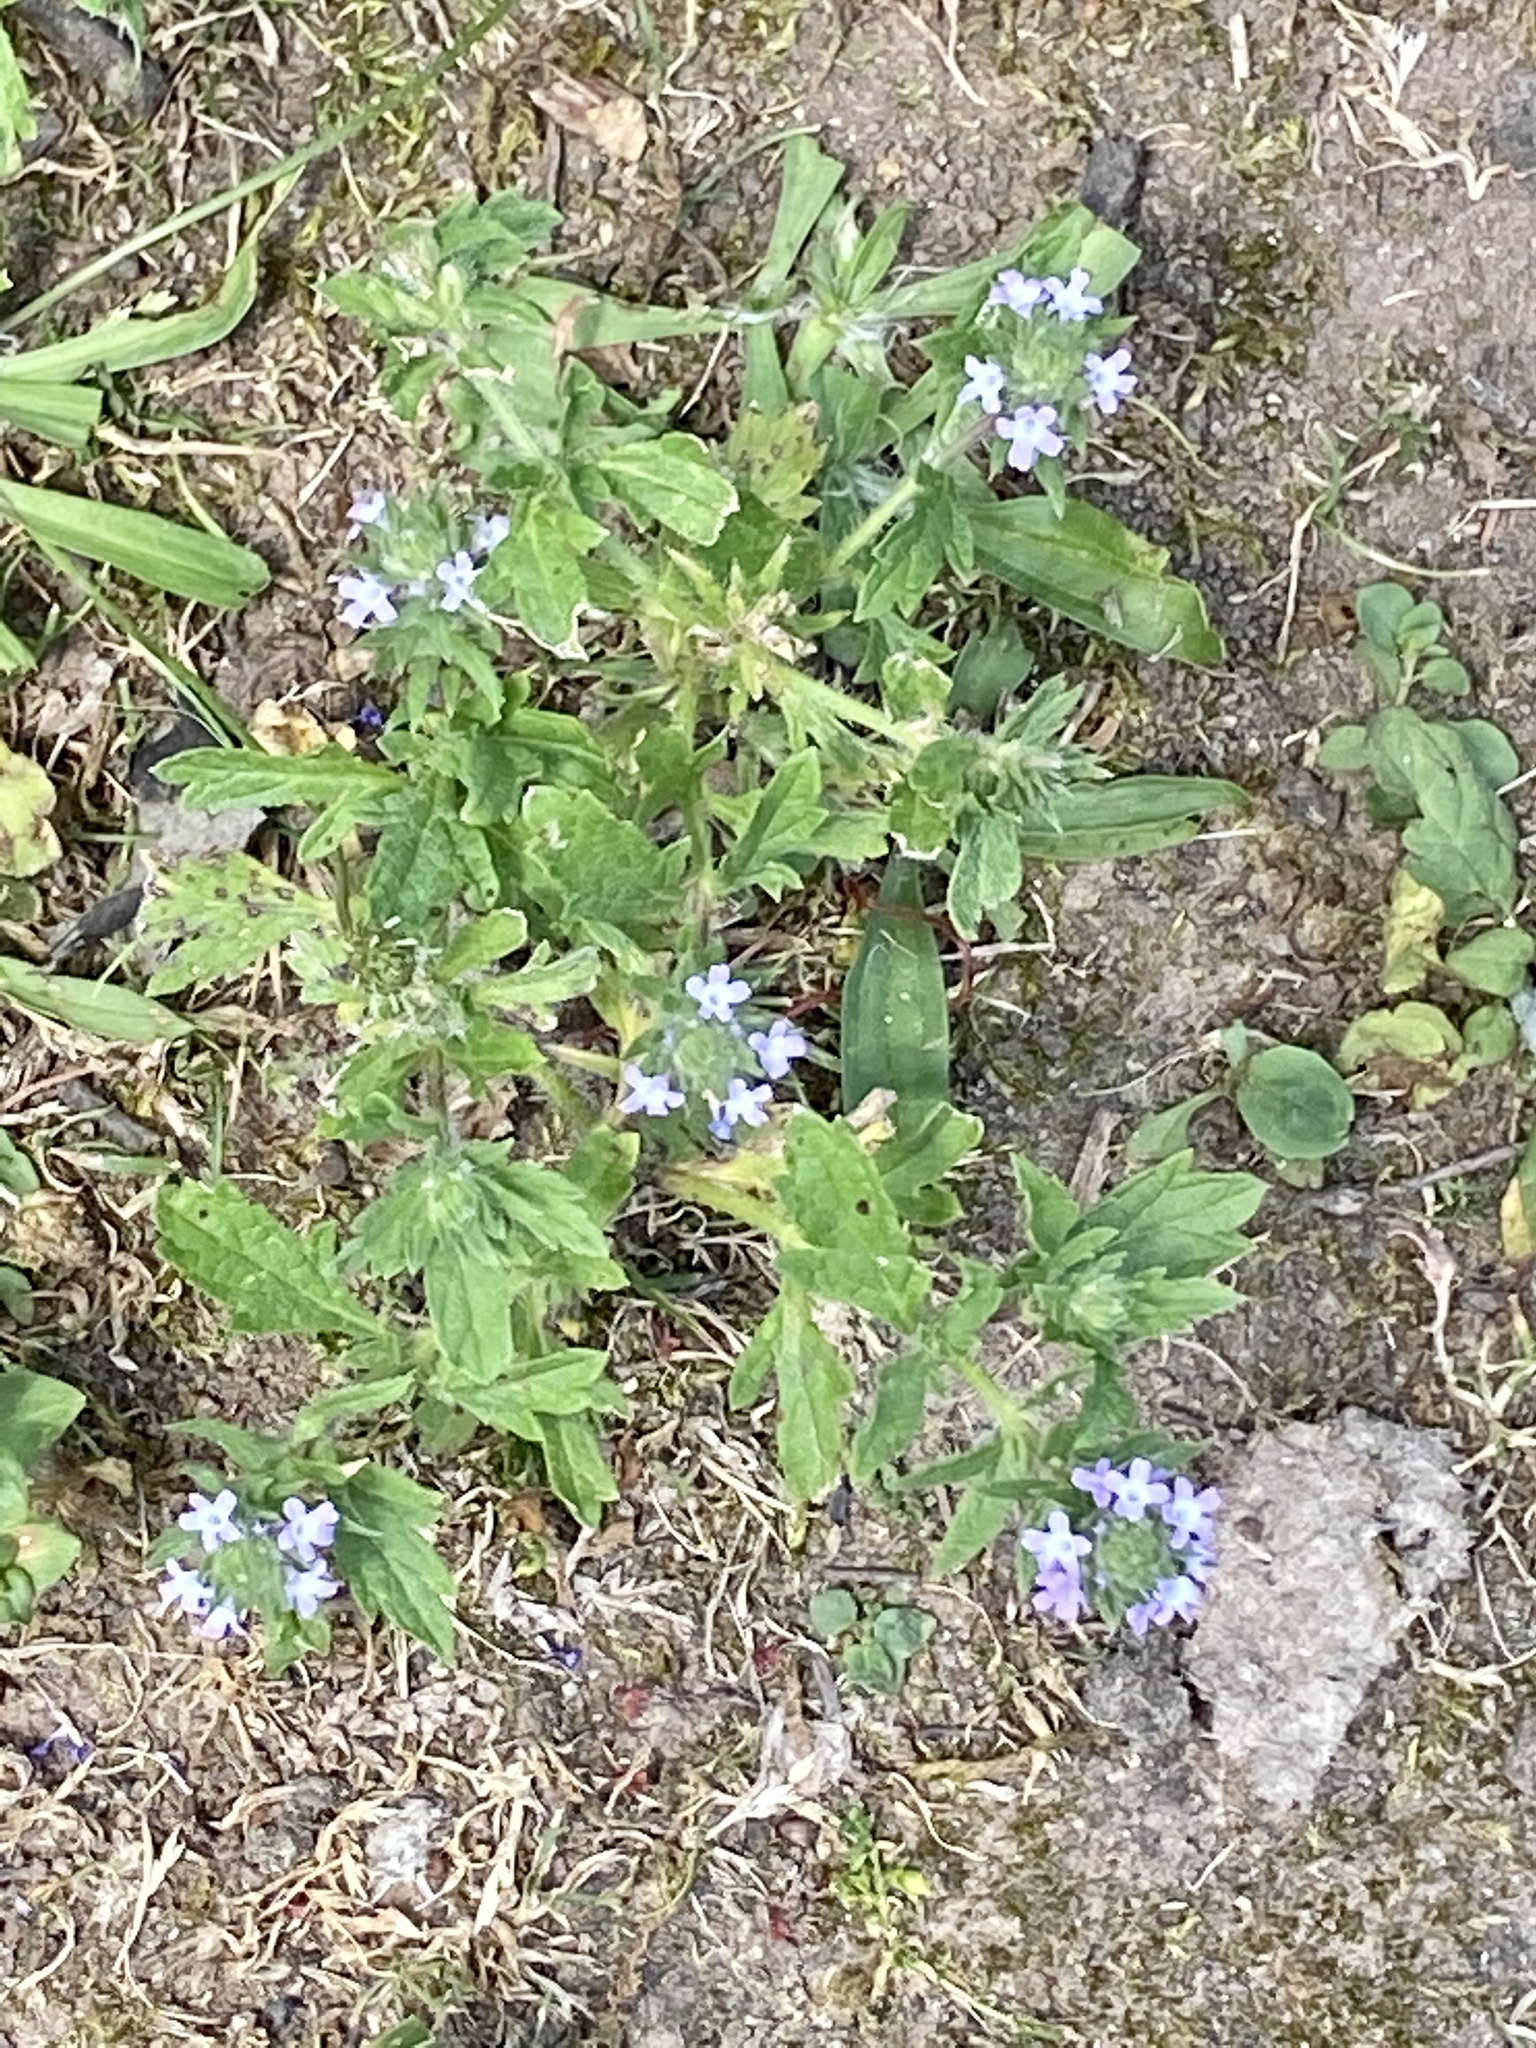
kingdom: Plantae
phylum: Tracheophyta
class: Magnoliopsida
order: Lamiales
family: Verbenaceae
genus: Verbena
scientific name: Verbena bracteata
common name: Bracted vervain
